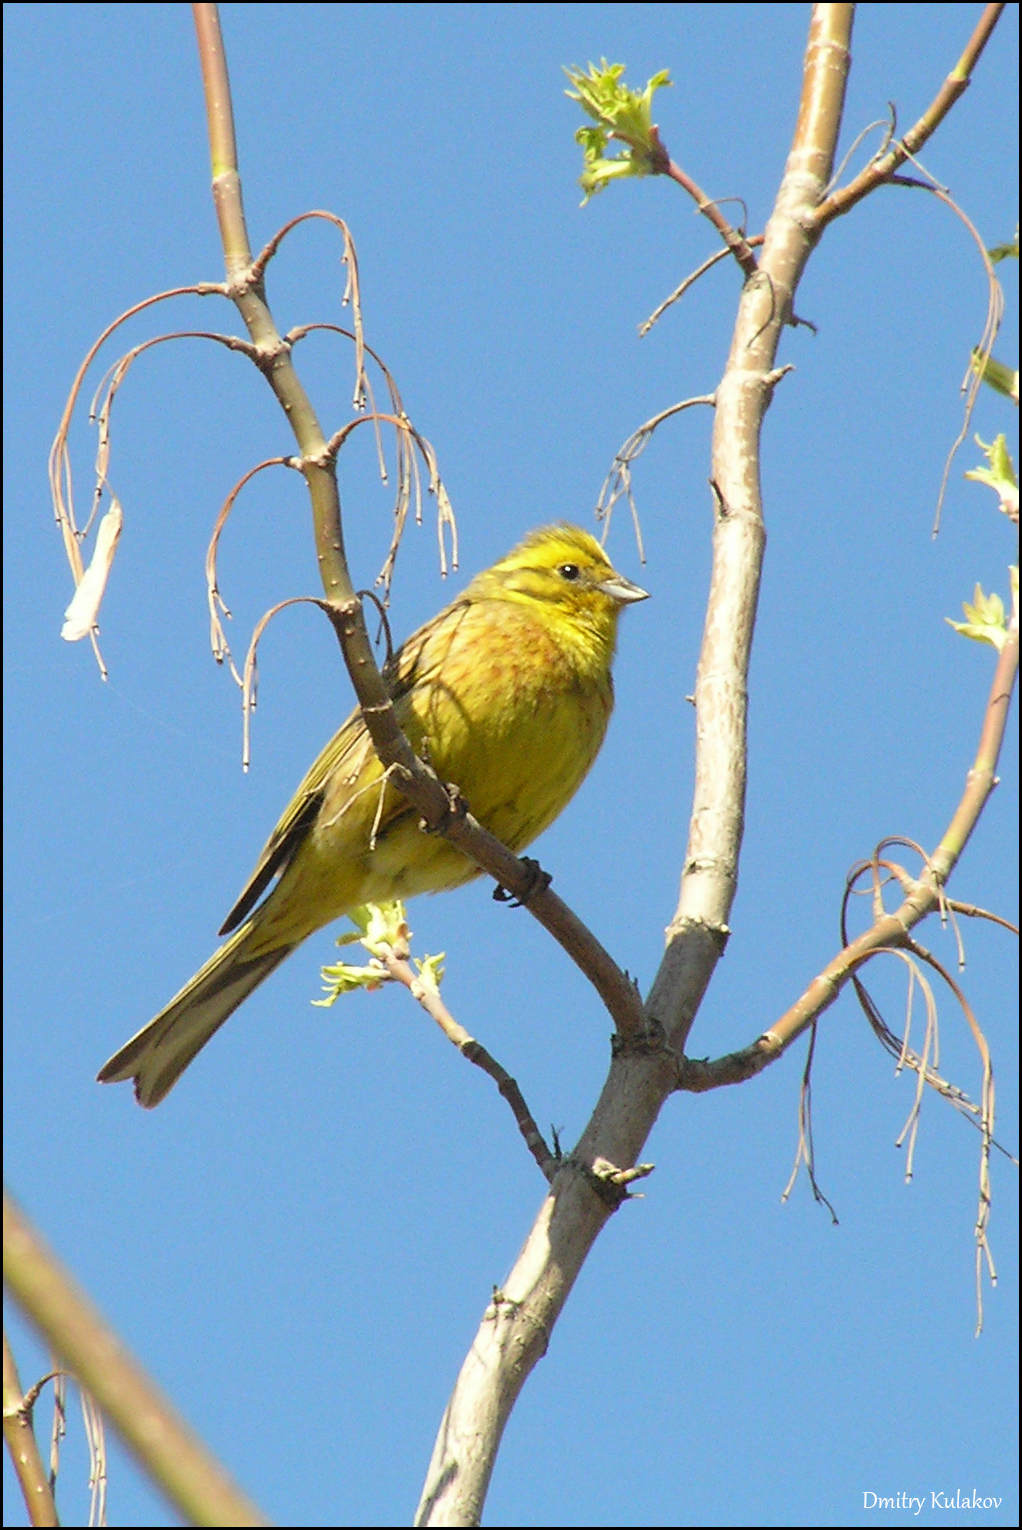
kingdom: Animalia
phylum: Chordata
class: Aves
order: Passeriformes
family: Emberizidae
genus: Emberiza
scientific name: Emberiza citrinella
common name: Yellowhammer
